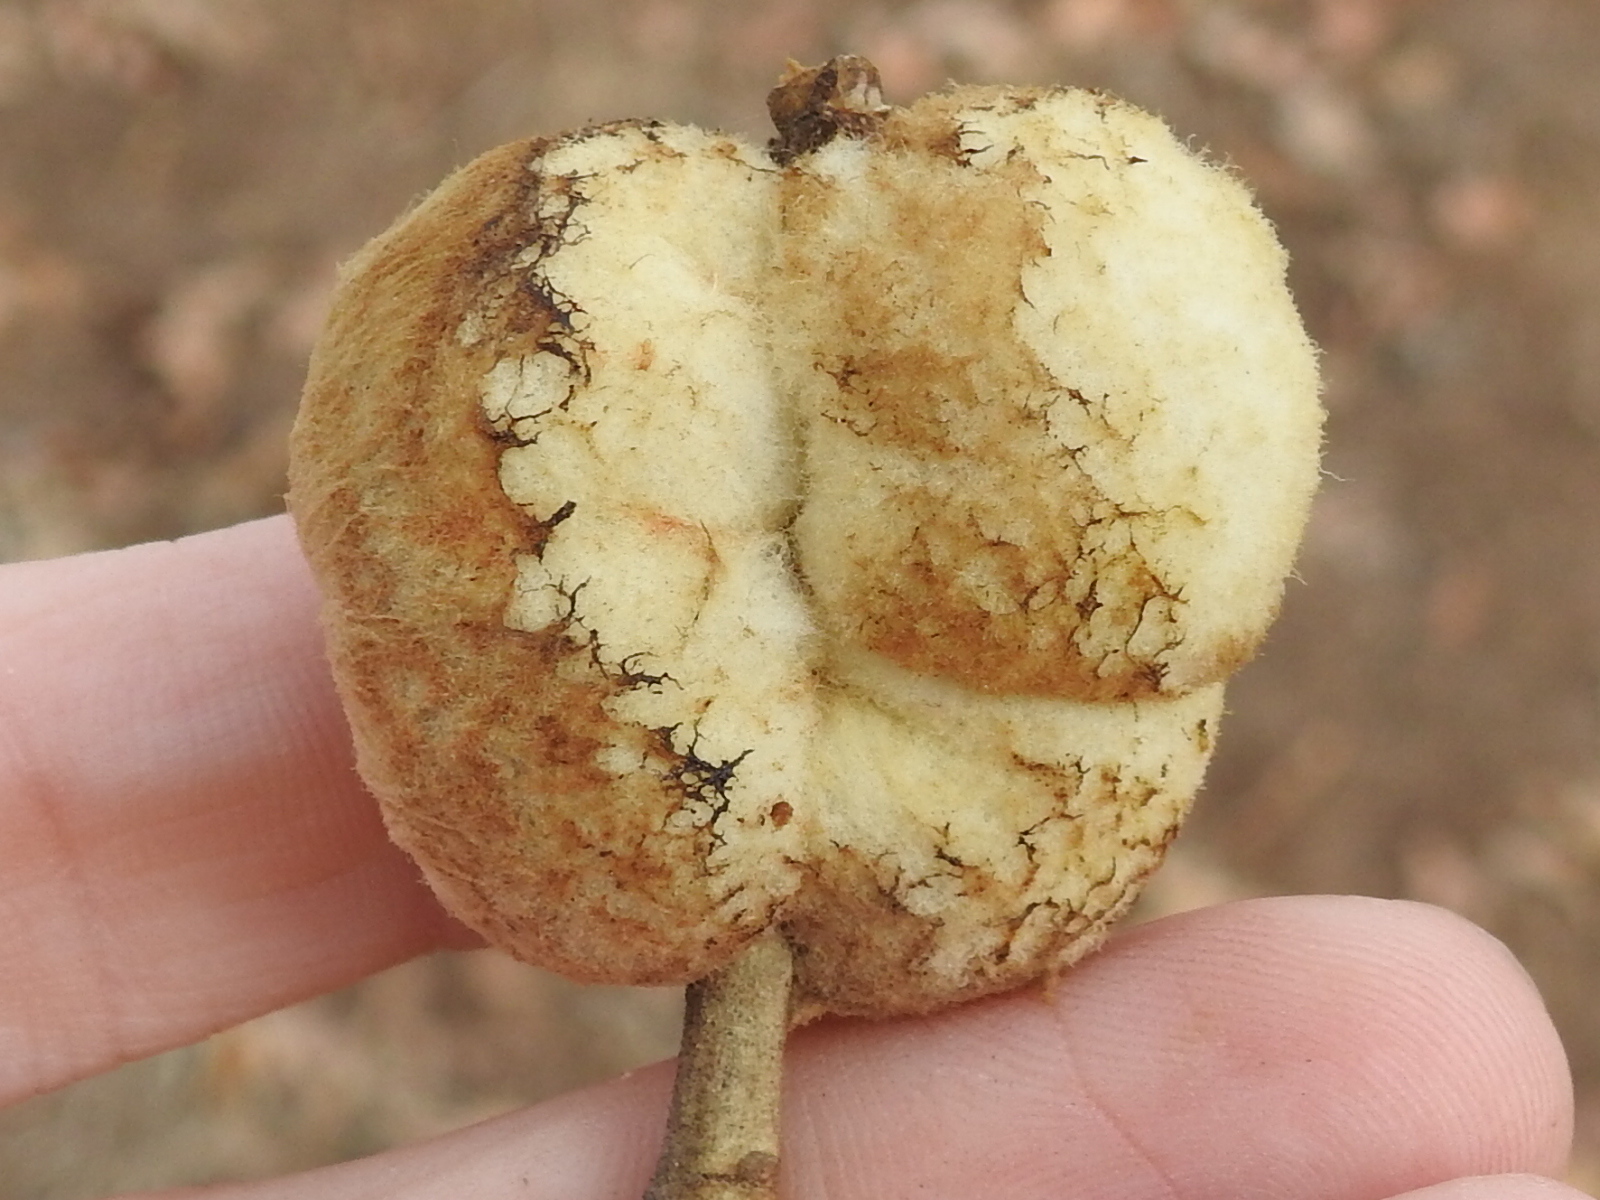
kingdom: Animalia
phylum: Arthropoda
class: Insecta
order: Hymenoptera
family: Cynipidae
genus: Striatoandricus
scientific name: Striatoandricus aciculatus
